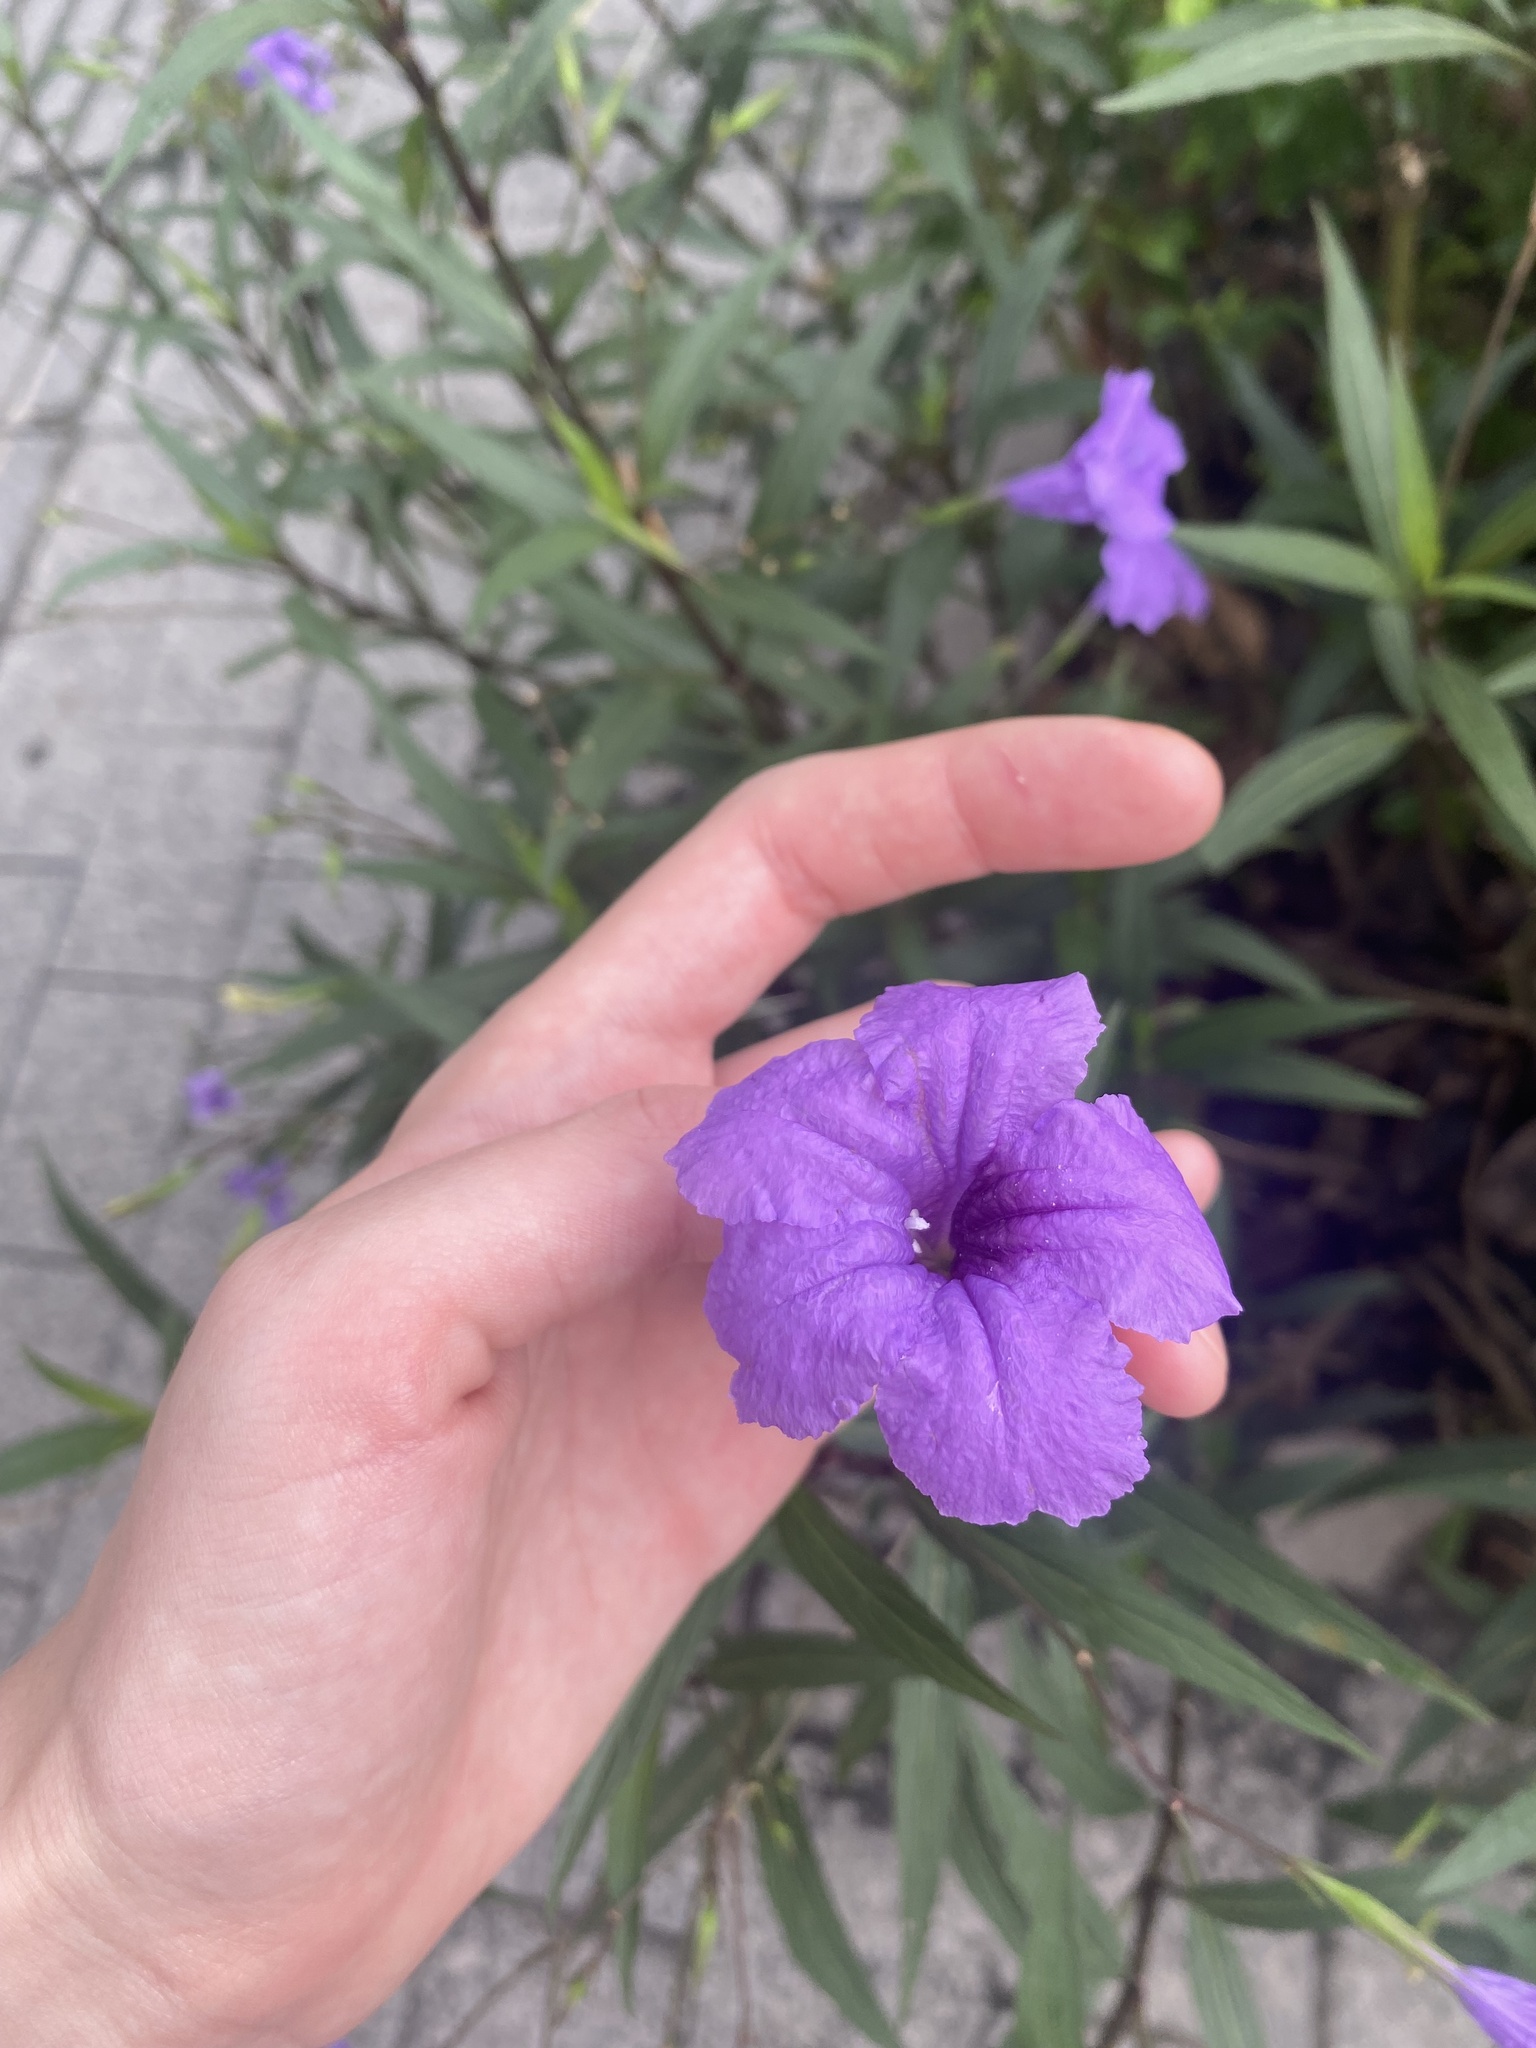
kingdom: Plantae
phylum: Tracheophyta
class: Magnoliopsida
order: Lamiales
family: Acanthaceae
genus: Ruellia
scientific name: Ruellia simplex
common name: Softseed wild petunia
